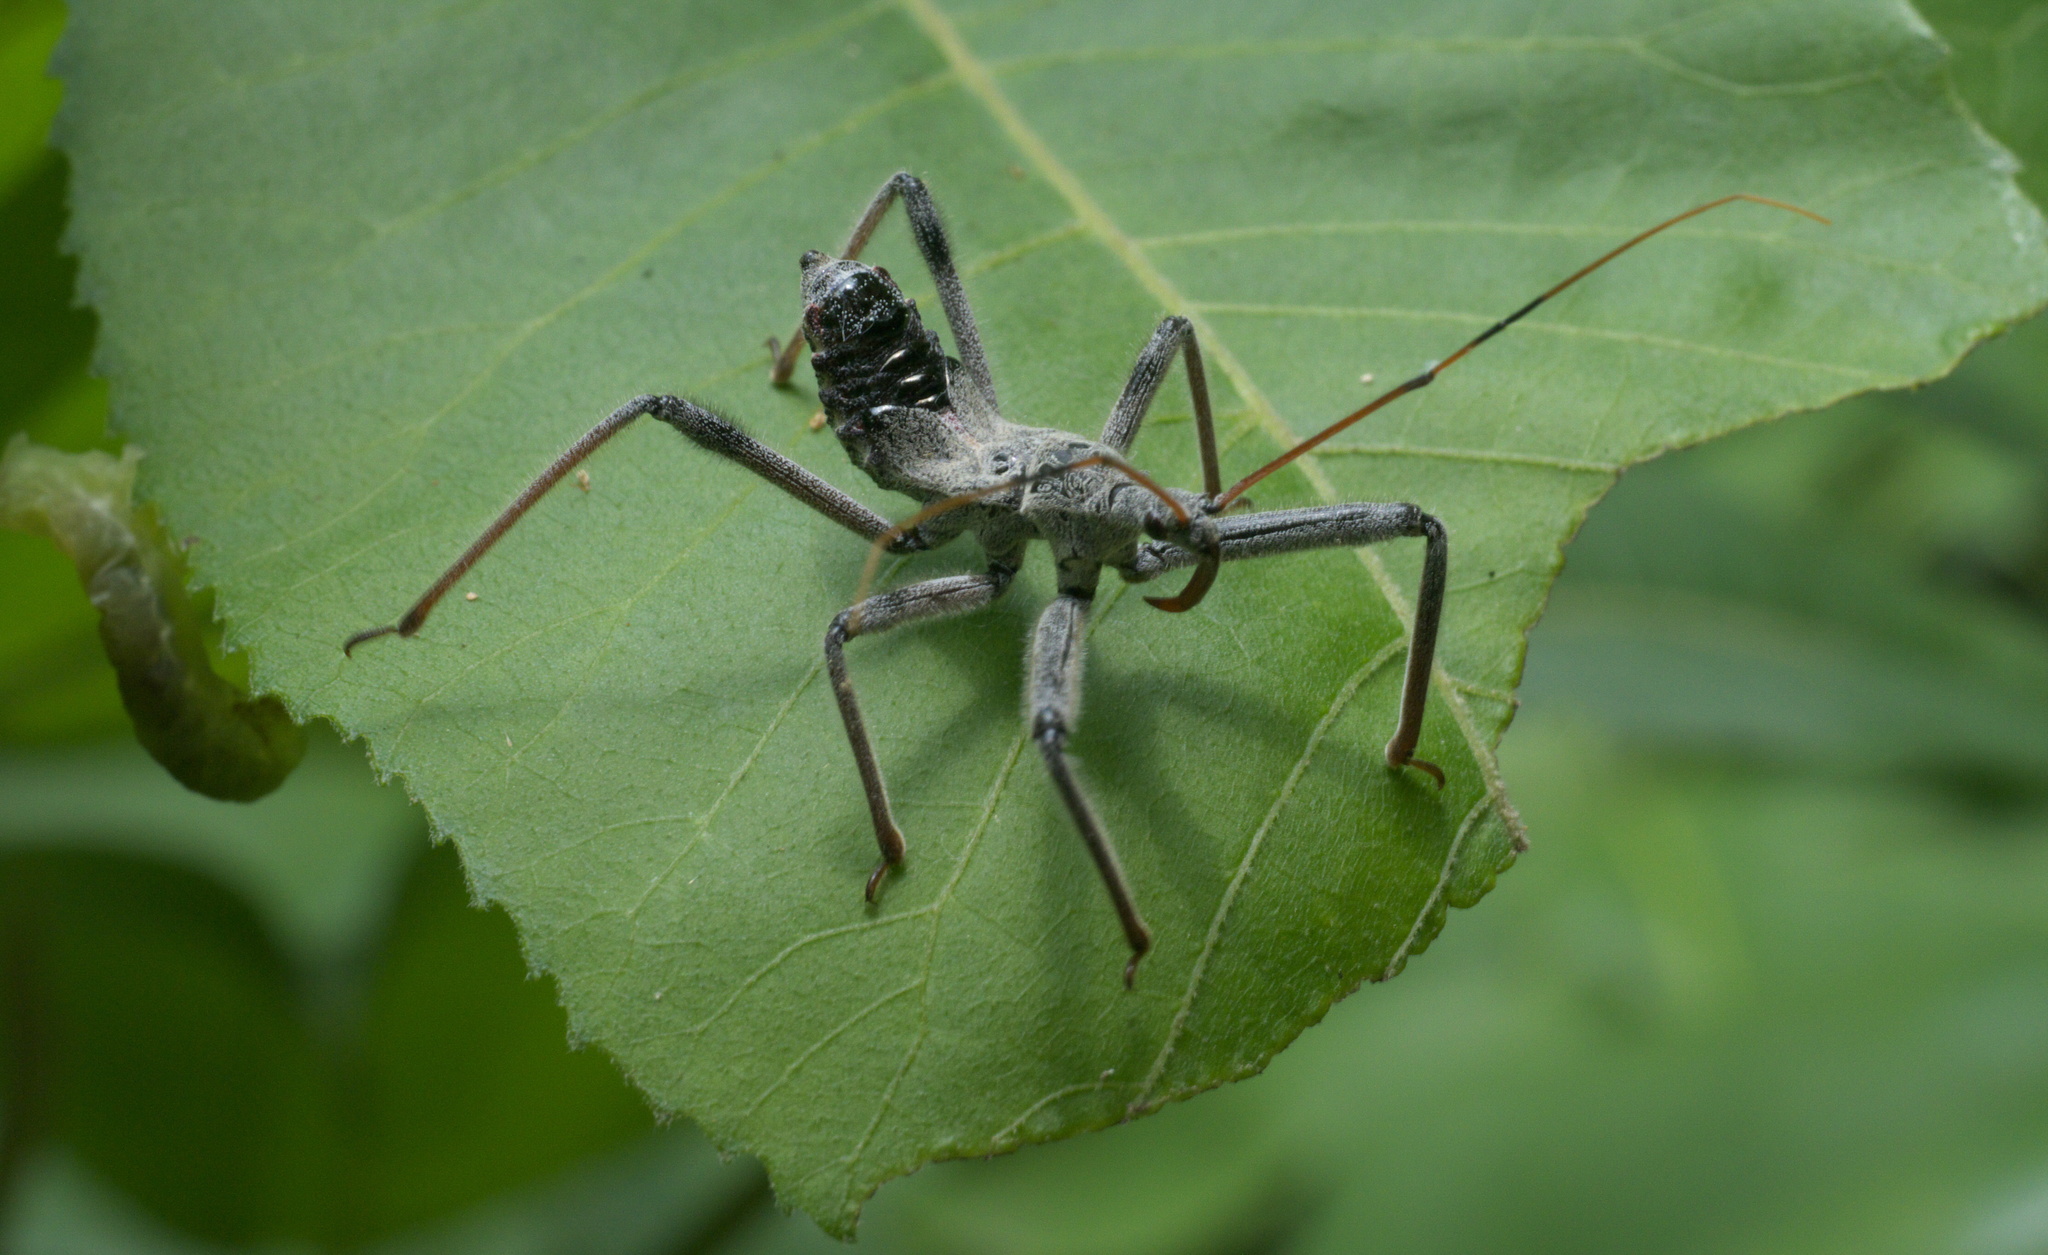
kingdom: Animalia
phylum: Arthropoda
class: Insecta
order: Hemiptera
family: Reduviidae
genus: Arilus
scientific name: Arilus cristatus
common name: North american wheel bug
